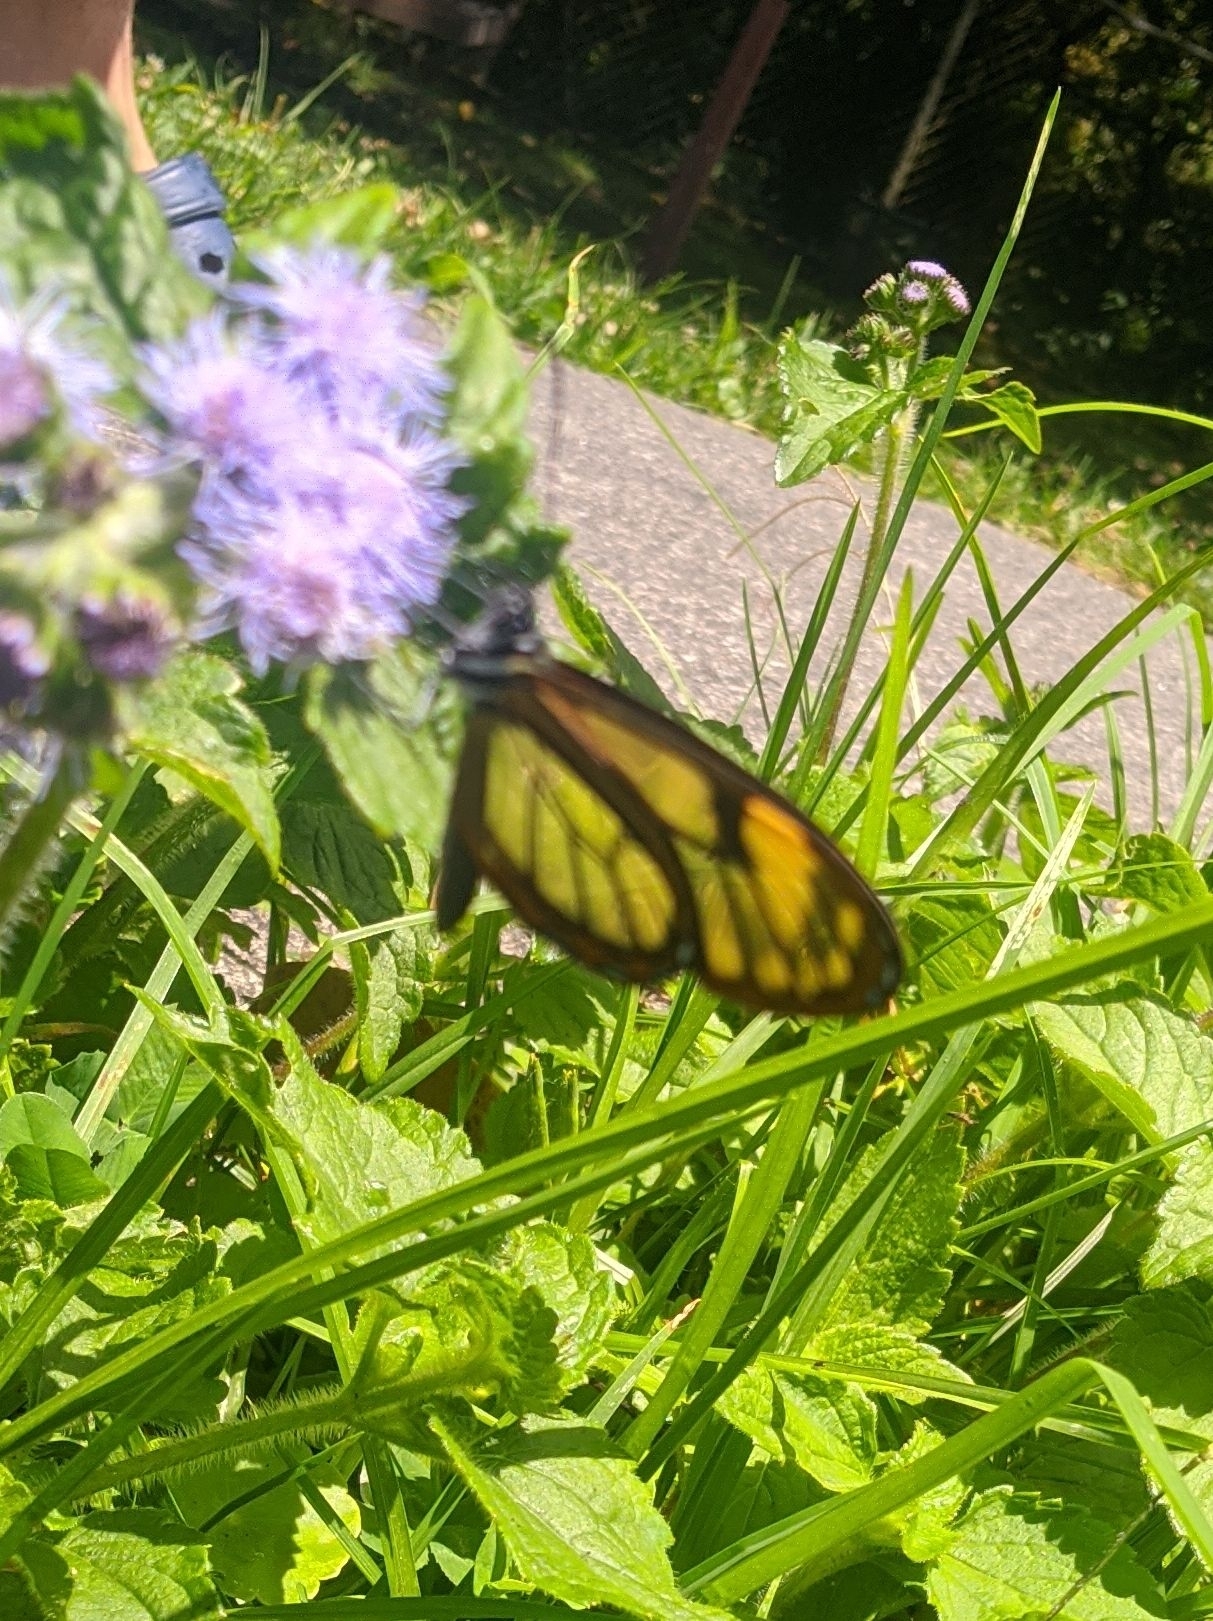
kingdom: Animalia
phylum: Arthropoda
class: Insecta
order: Lepidoptera
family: Nymphalidae
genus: Pteronymia
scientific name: Pteronymia veia
